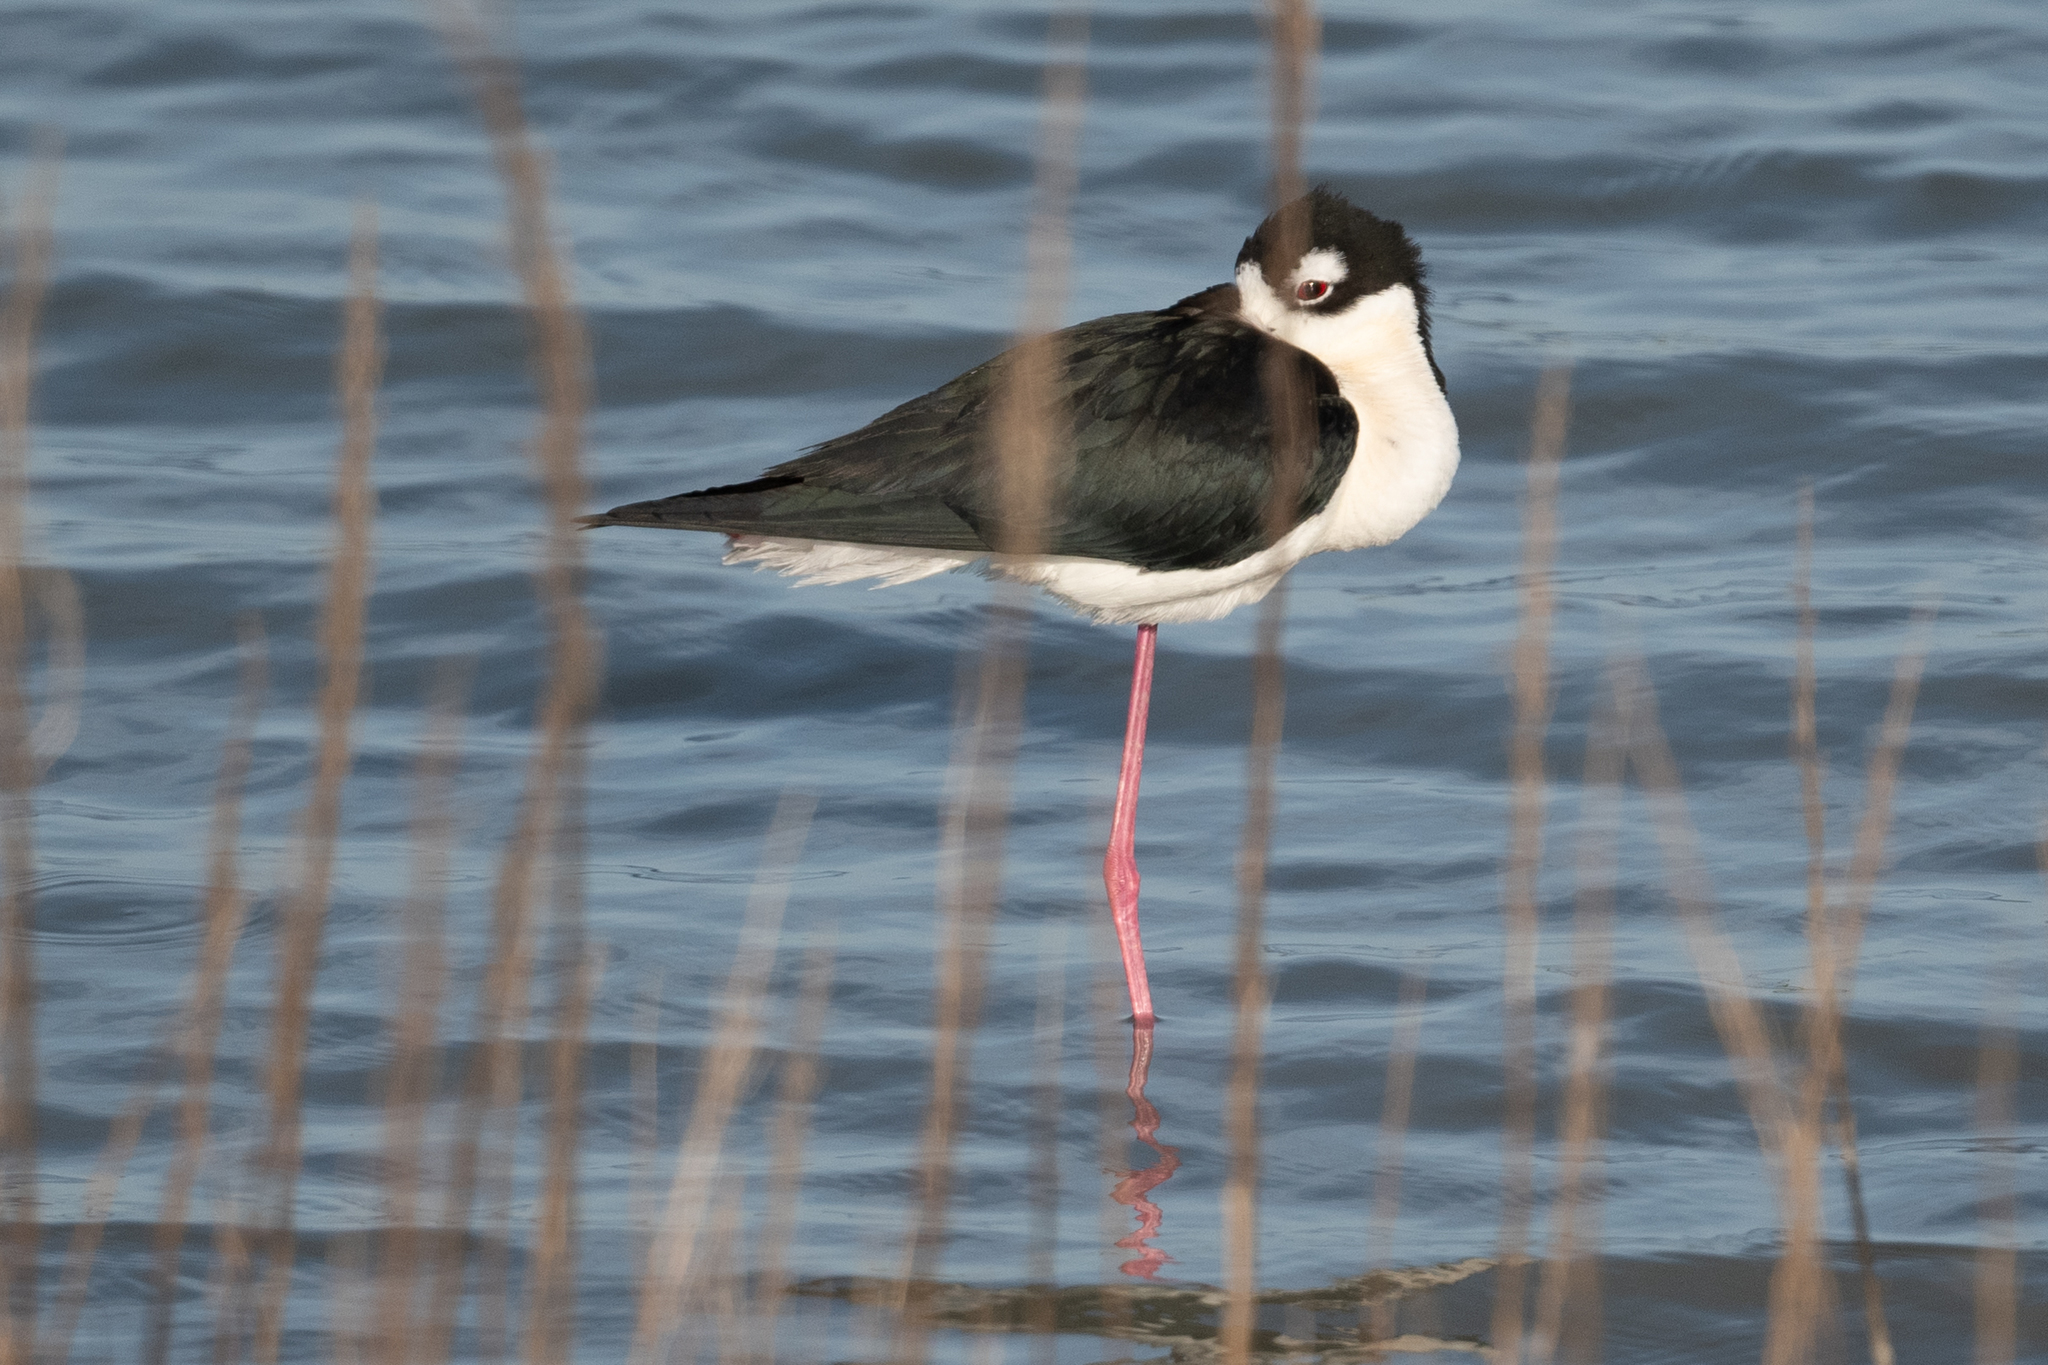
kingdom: Animalia
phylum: Chordata
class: Aves
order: Charadriiformes
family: Recurvirostridae
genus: Himantopus
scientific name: Himantopus mexicanus
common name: Black-necked stilt
